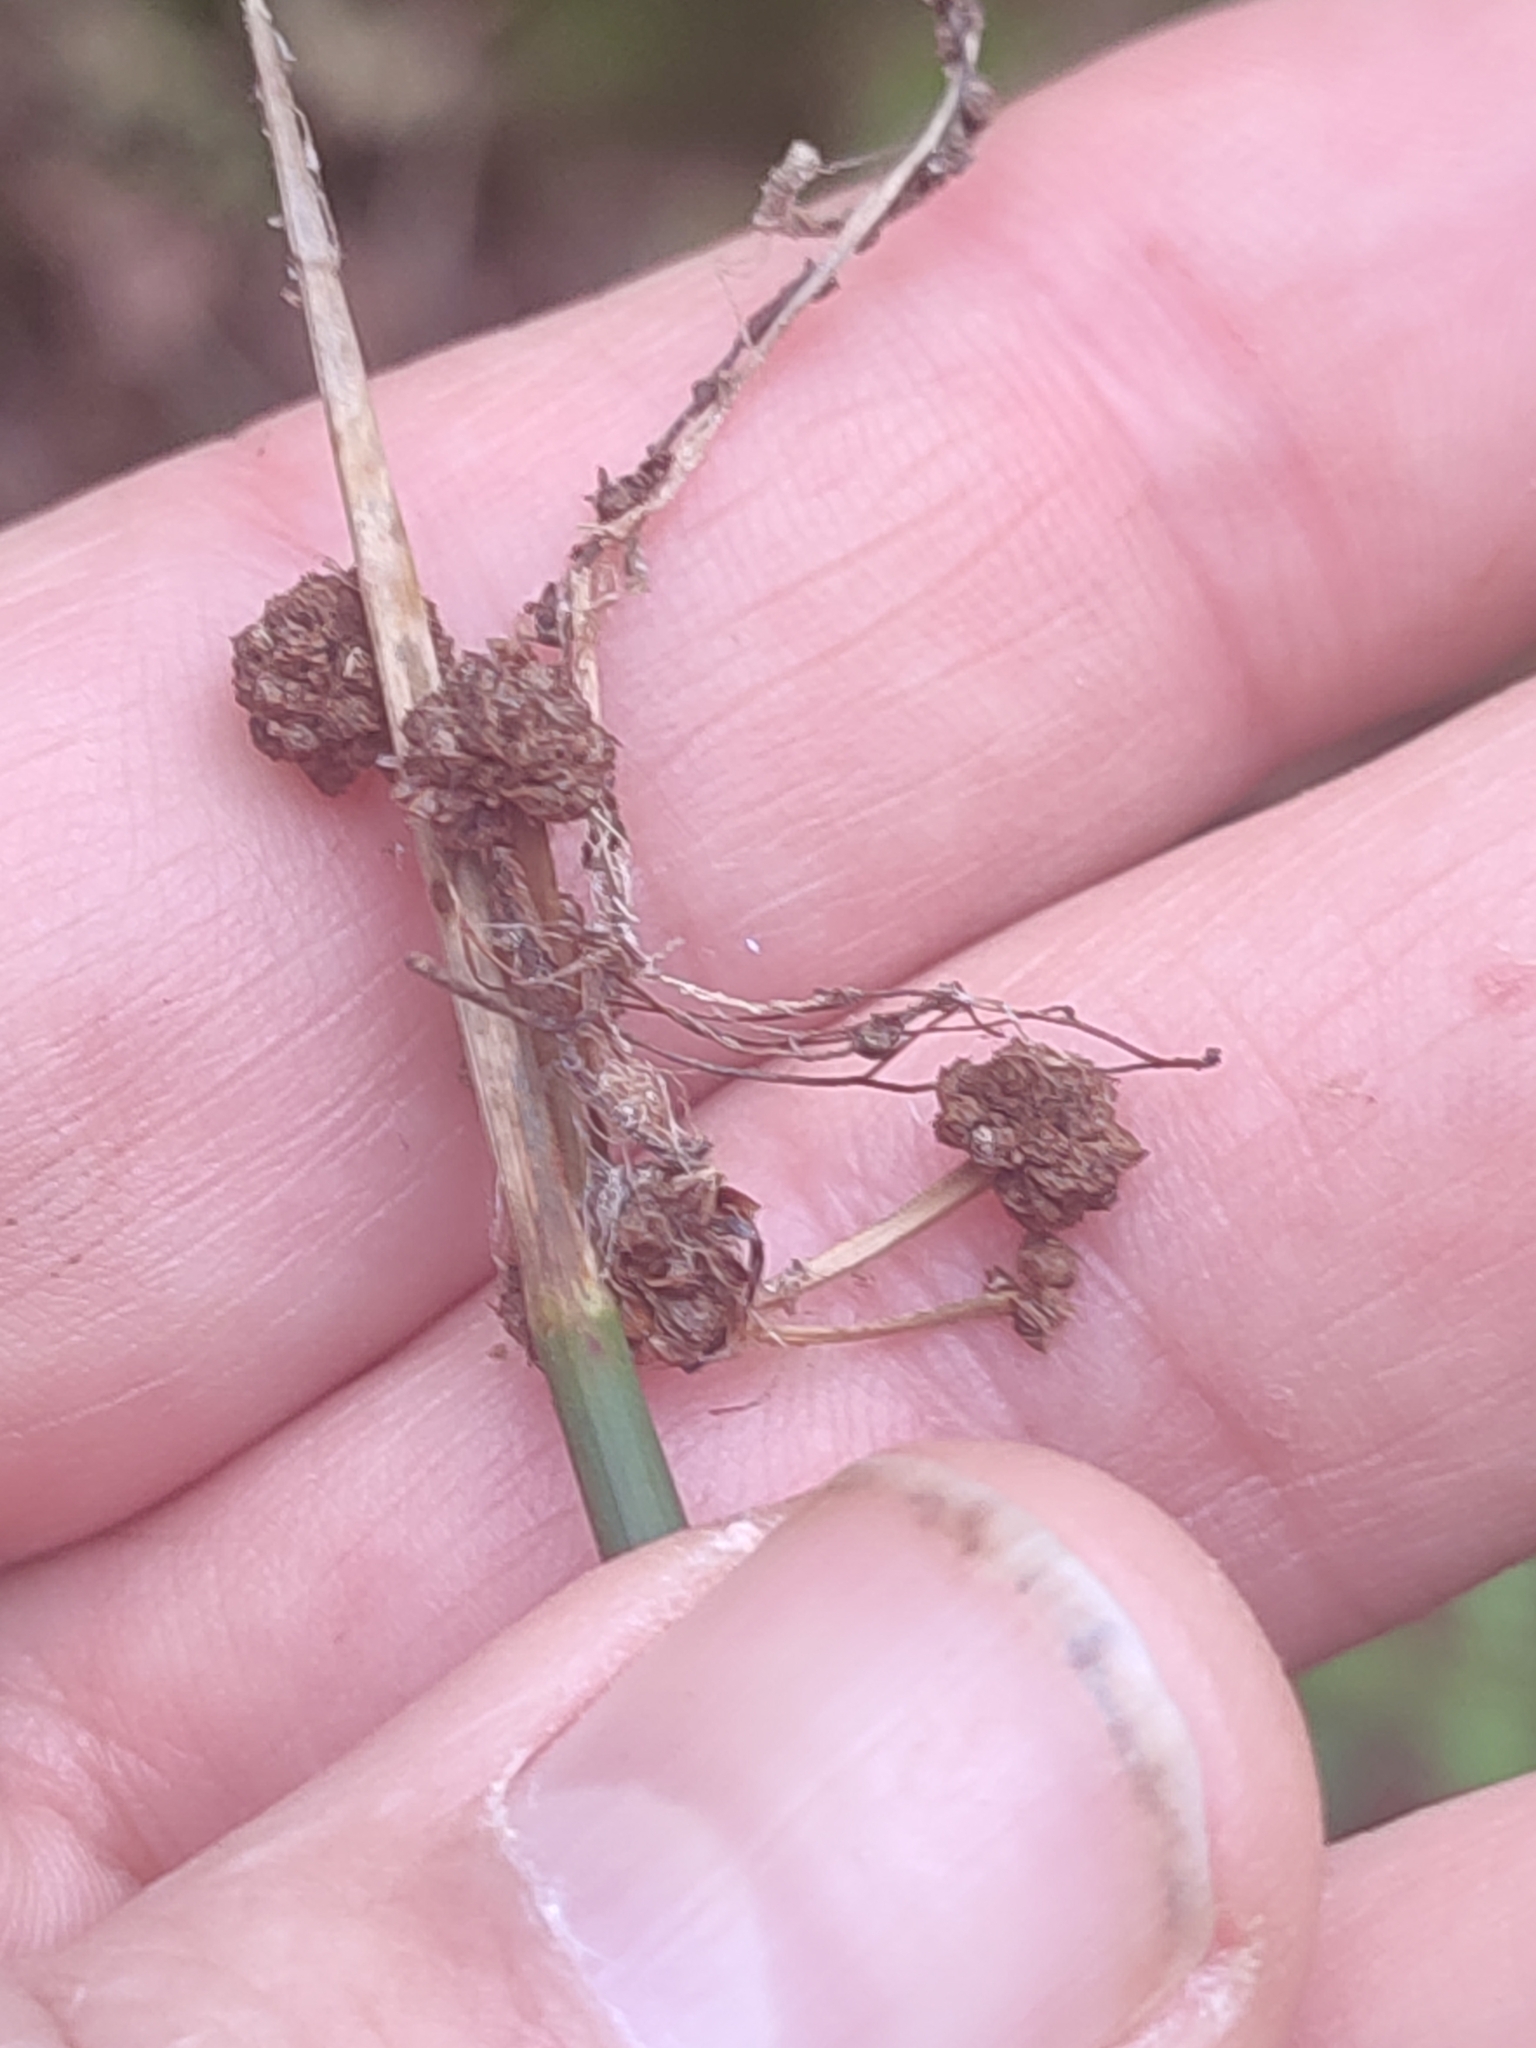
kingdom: Plantae
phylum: Tracheophyta
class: Liliopsida
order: Poales
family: Cyperaceae
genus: Scirpoides
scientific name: Scirpoides holoschoenus
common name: Round-headed club-rush
